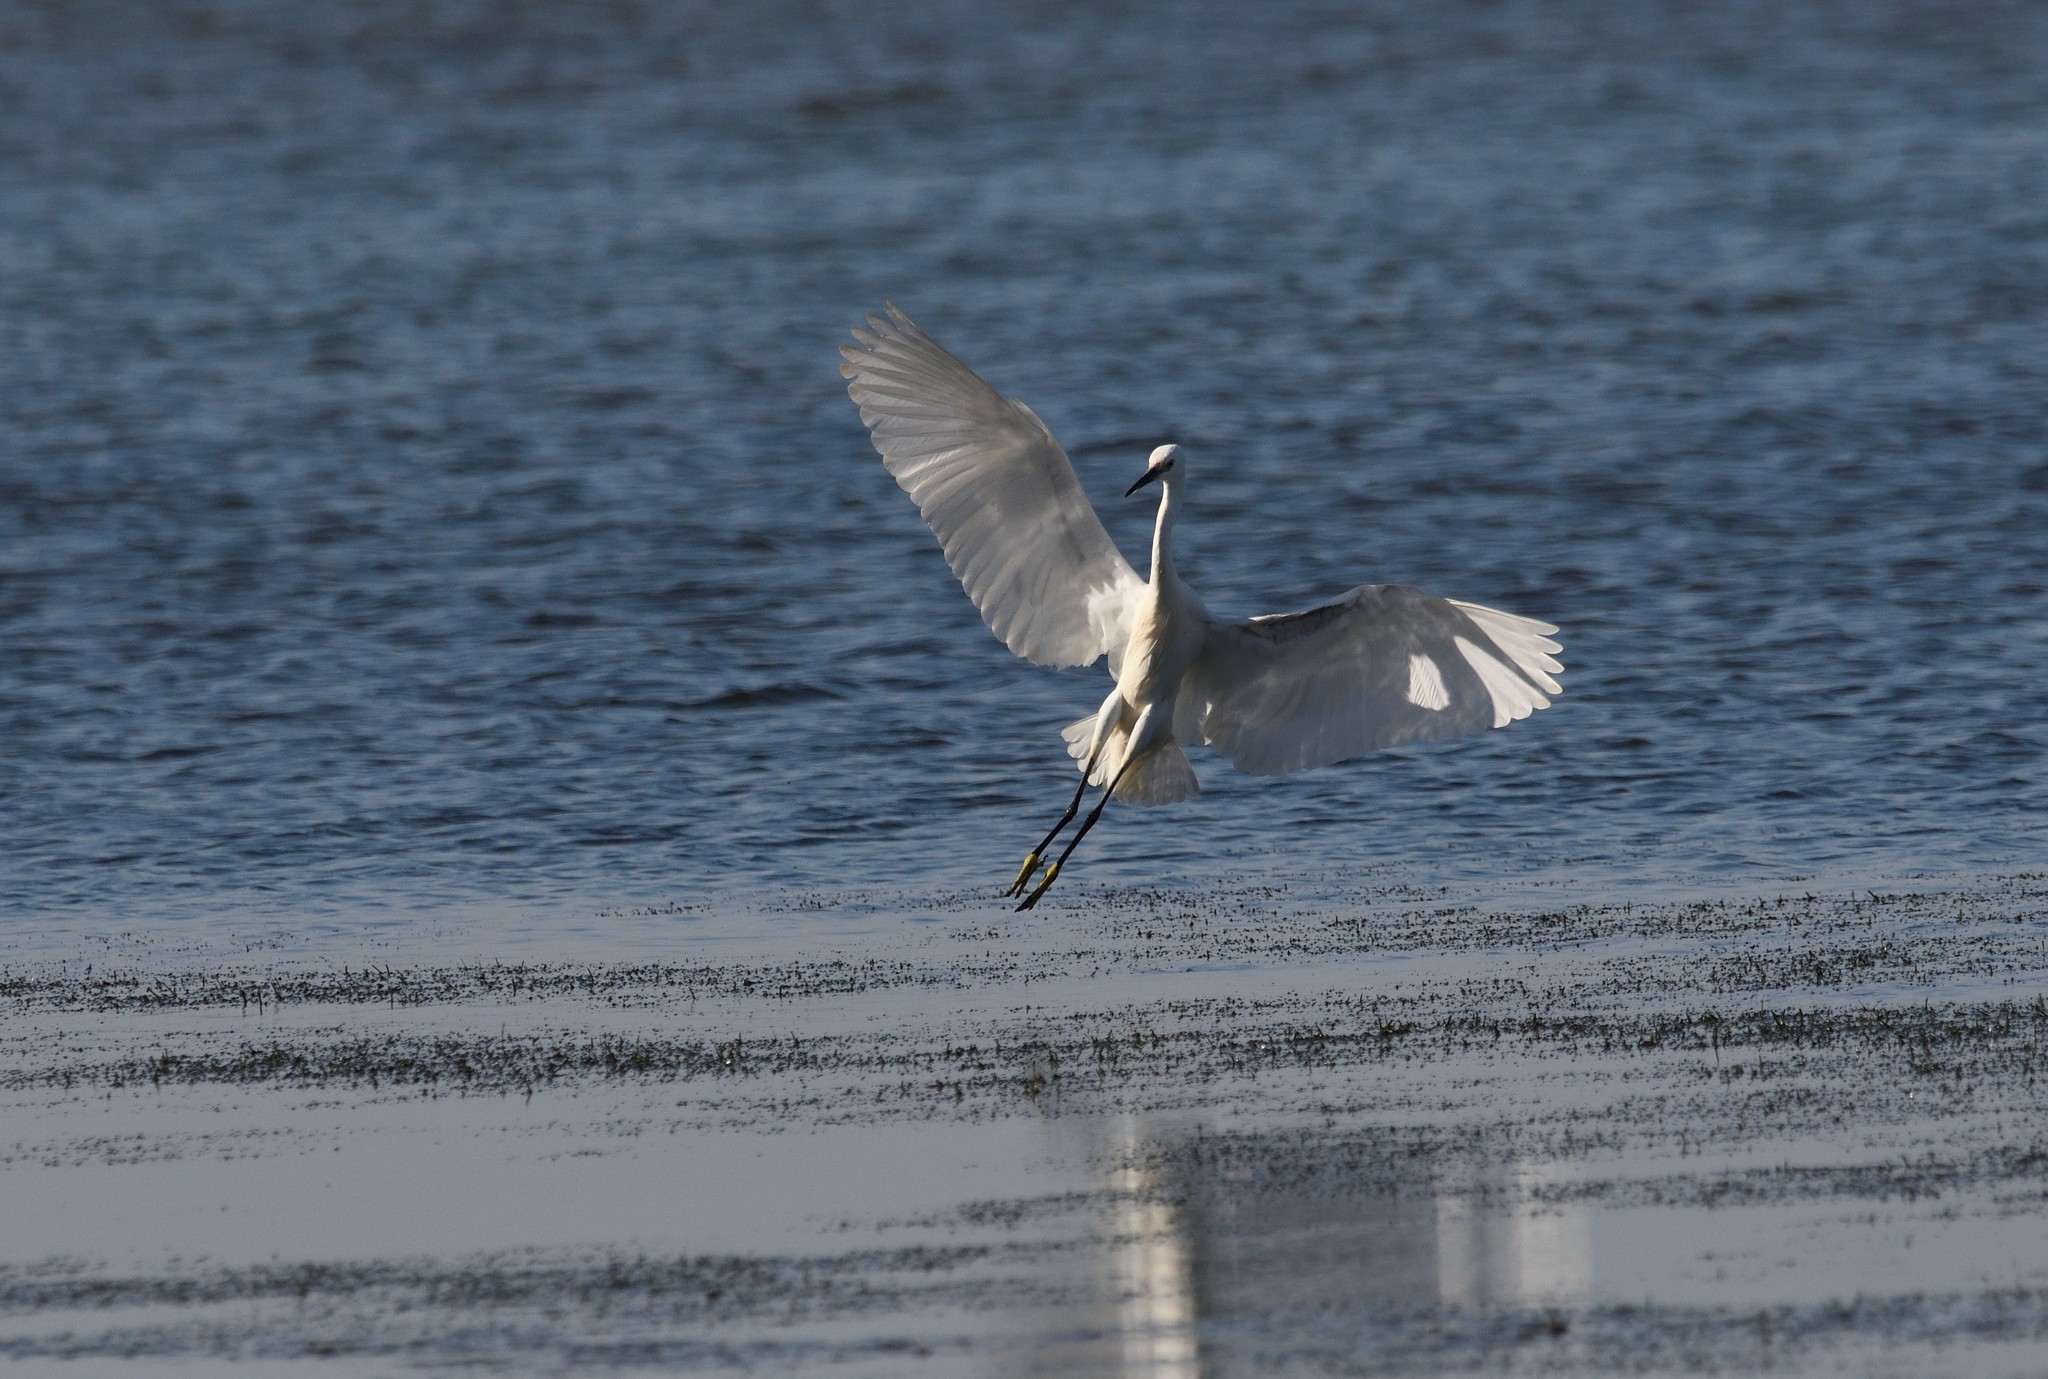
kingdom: Animalia
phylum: Chordata
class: Aves
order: Pelecaniformes
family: Ardeidae
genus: Egretta
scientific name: Egretta garzetta
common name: Little egret
